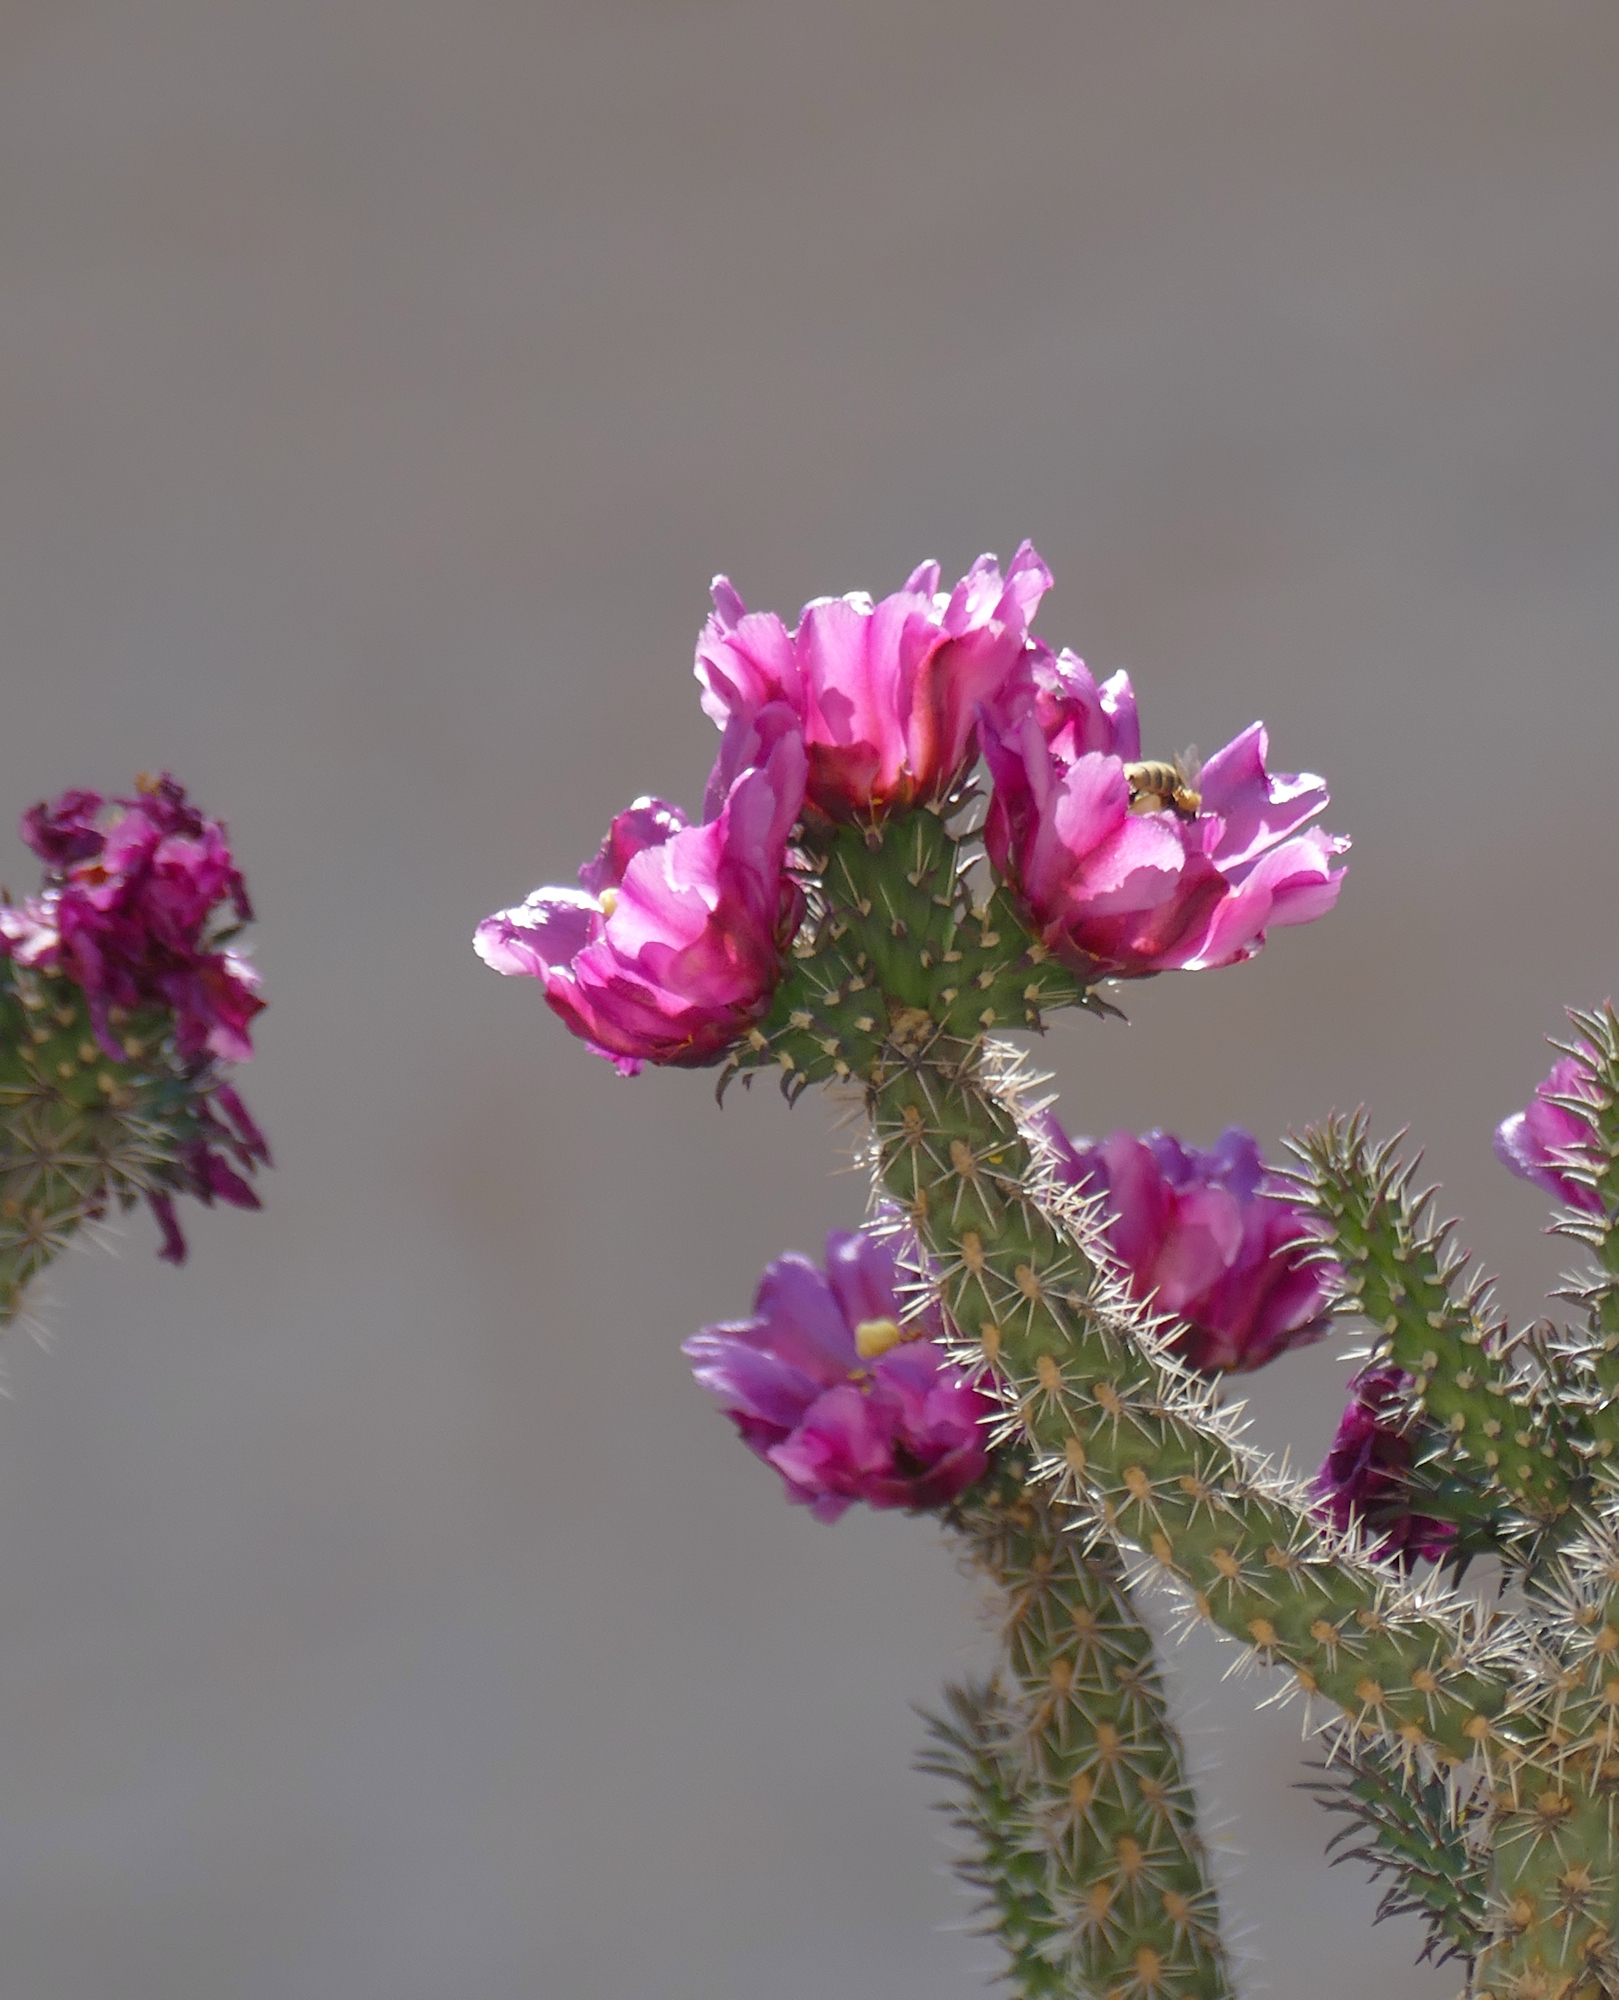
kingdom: Plantae
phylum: Tracheophyta
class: Magnoliopsida
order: Caryophyllales
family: Cactaceae
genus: Cylindropuntia
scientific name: Cylindropuntia imbricata
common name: Candelabrum cactus
